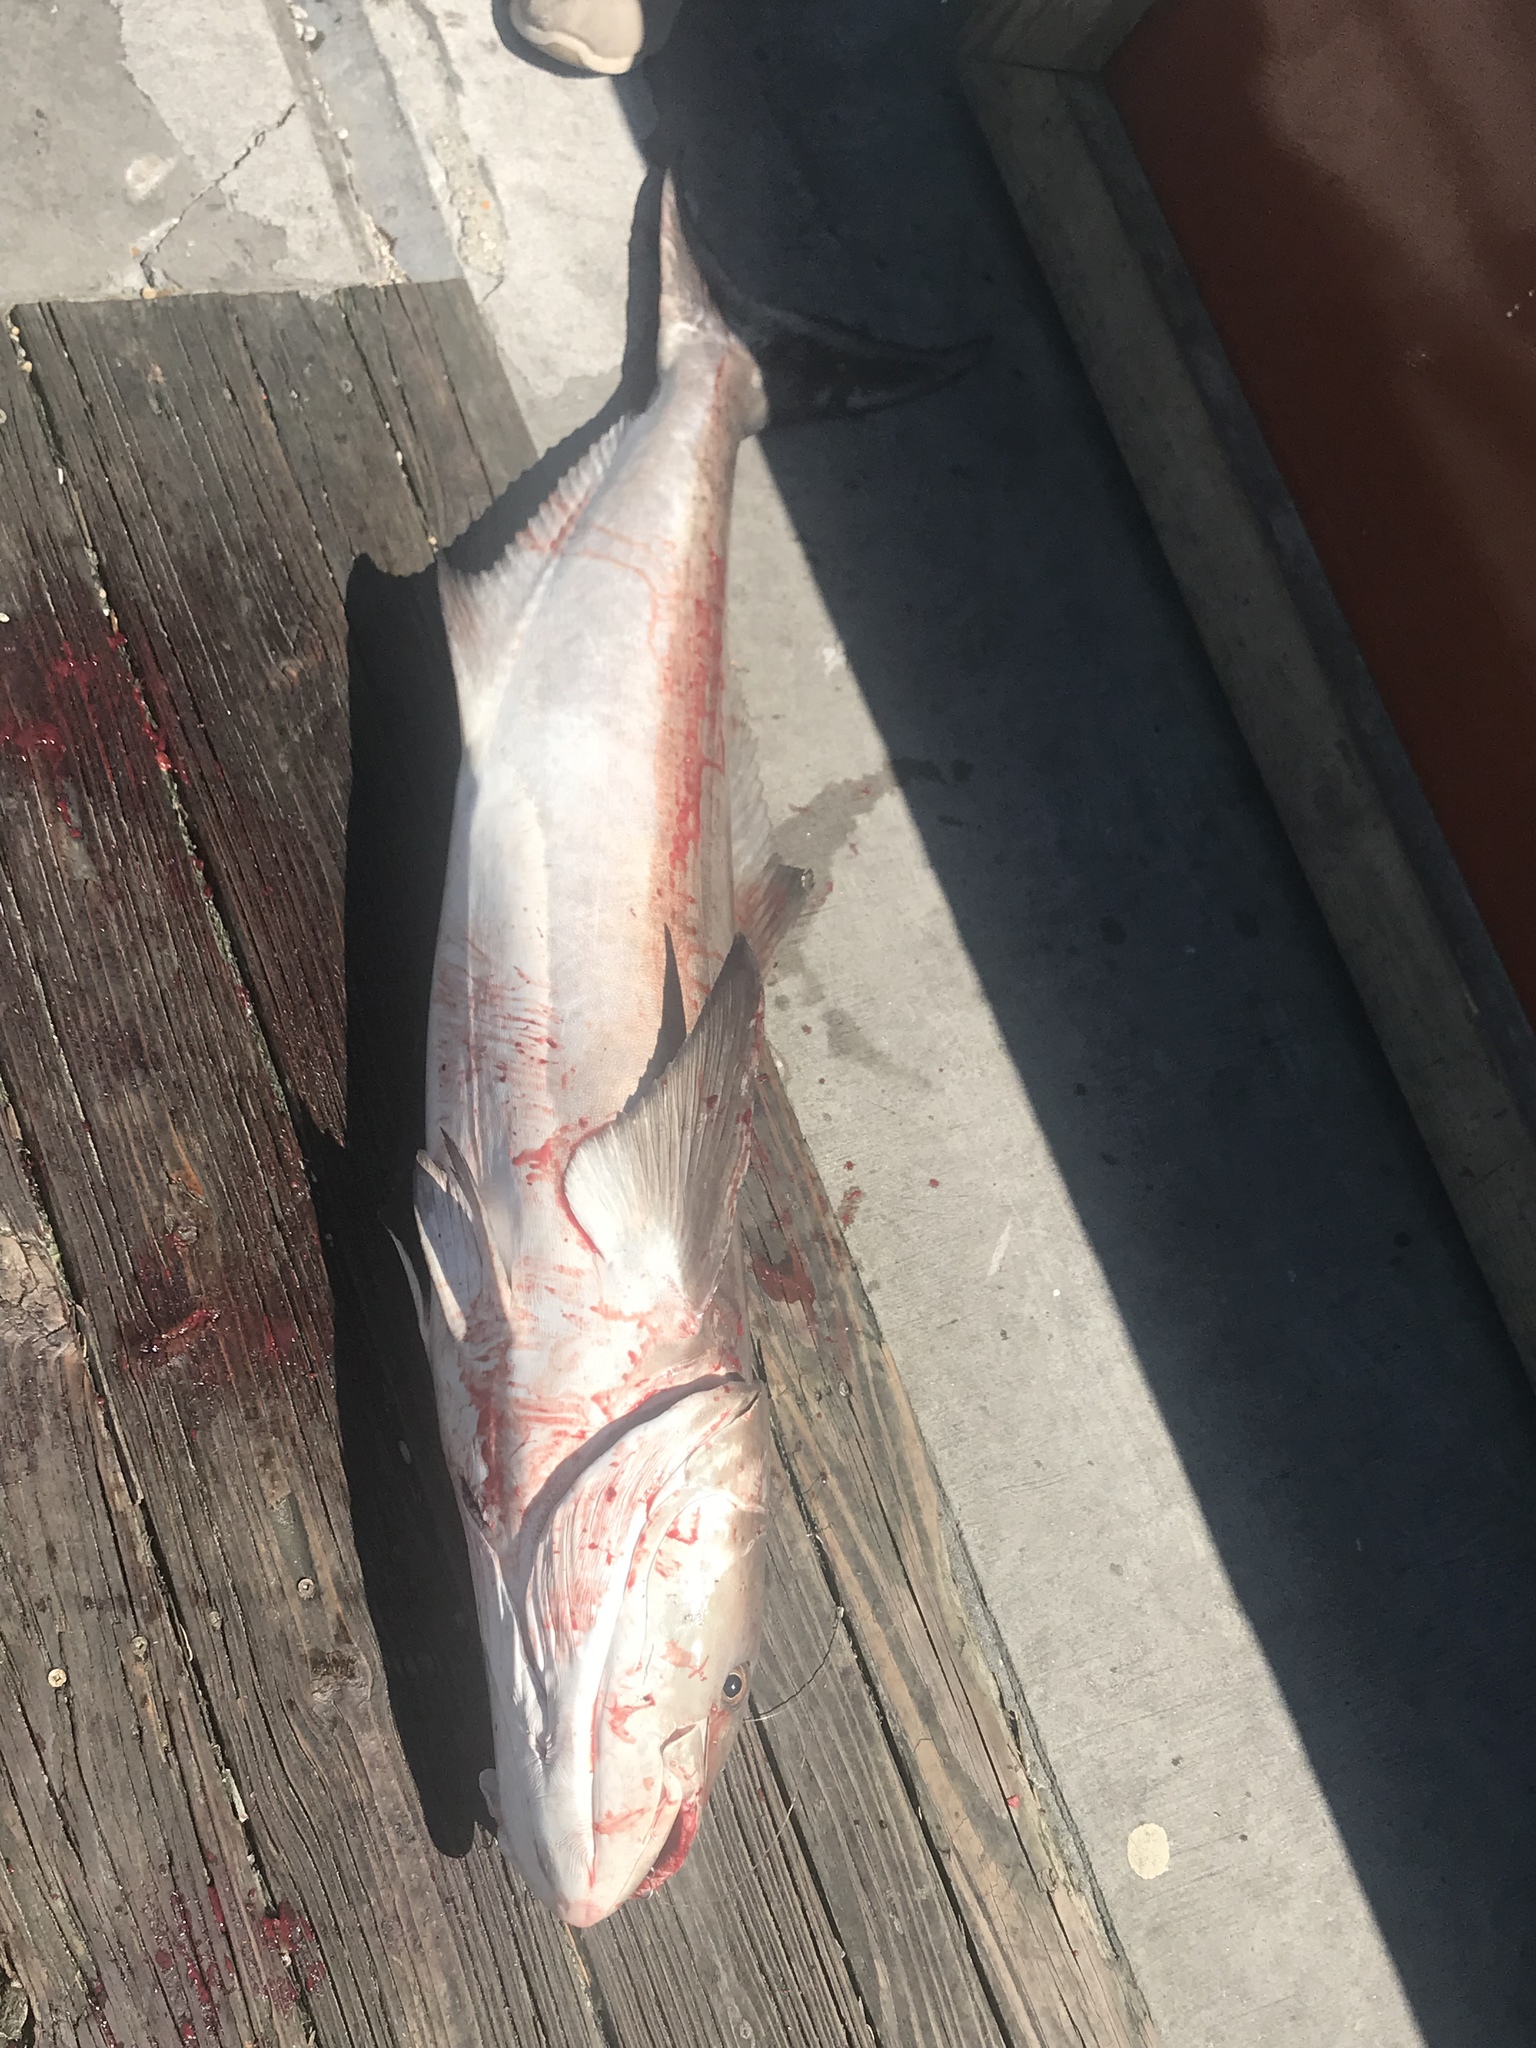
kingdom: Animalia
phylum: Chordata
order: Perciformes
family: Rachycentridae
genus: Rachycentron
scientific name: Rachycentron canadum
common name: Cobia
